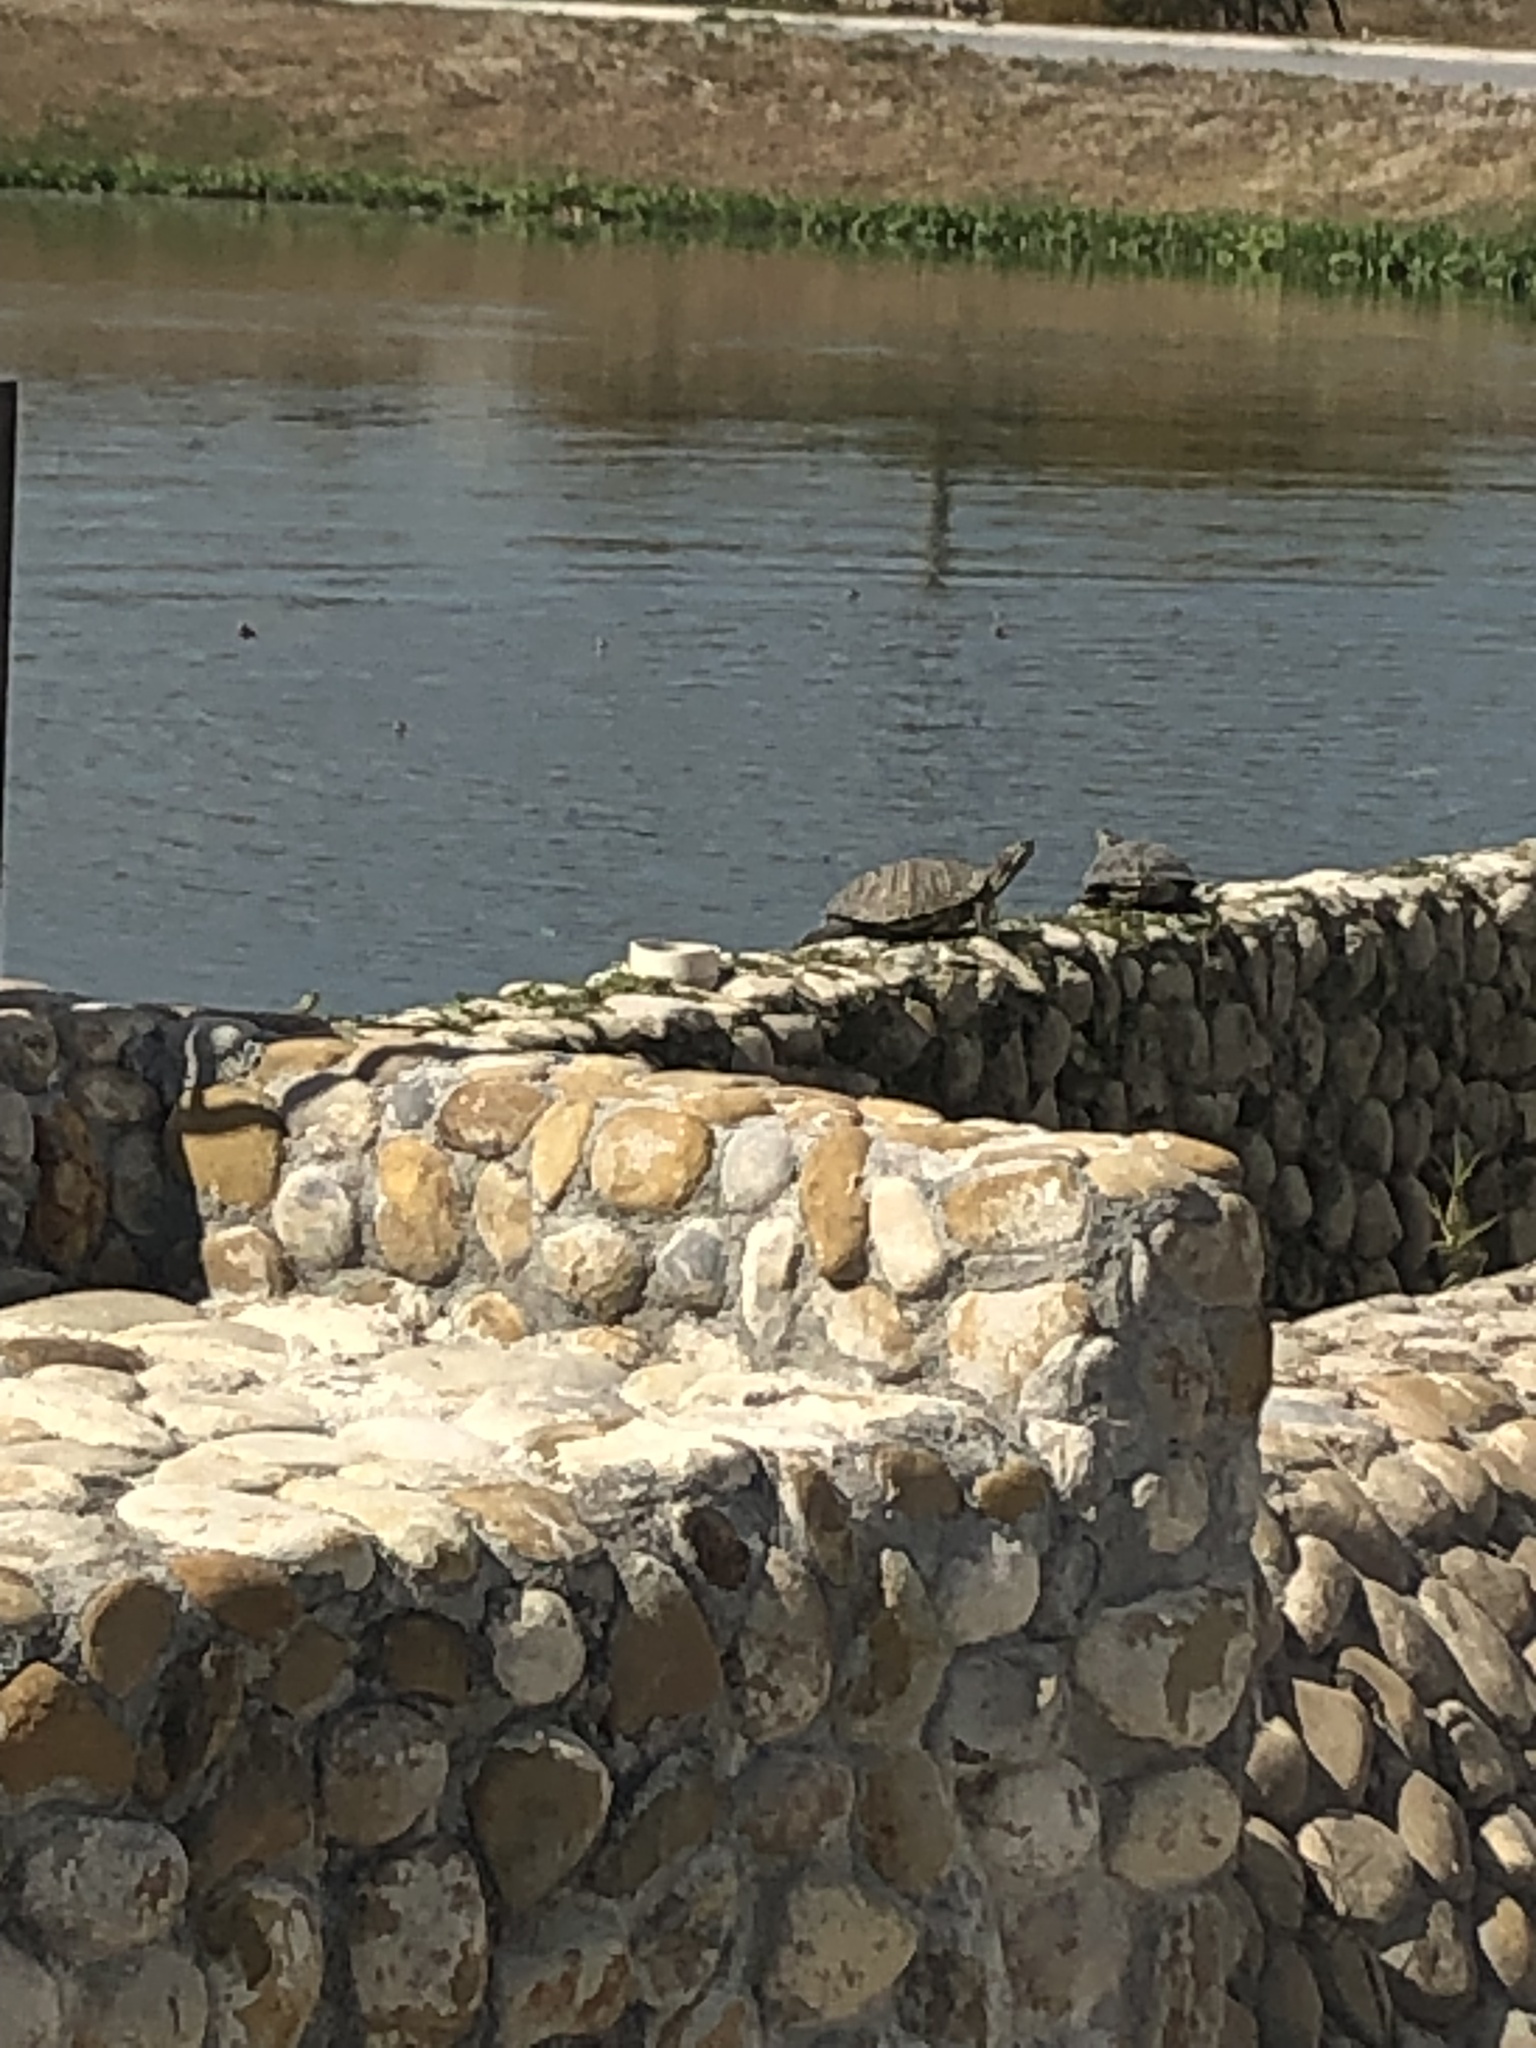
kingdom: Animalia
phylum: Chordata
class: Testudines
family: Emydidae
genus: Trachemys
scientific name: Trachemys scripta
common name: Slider
